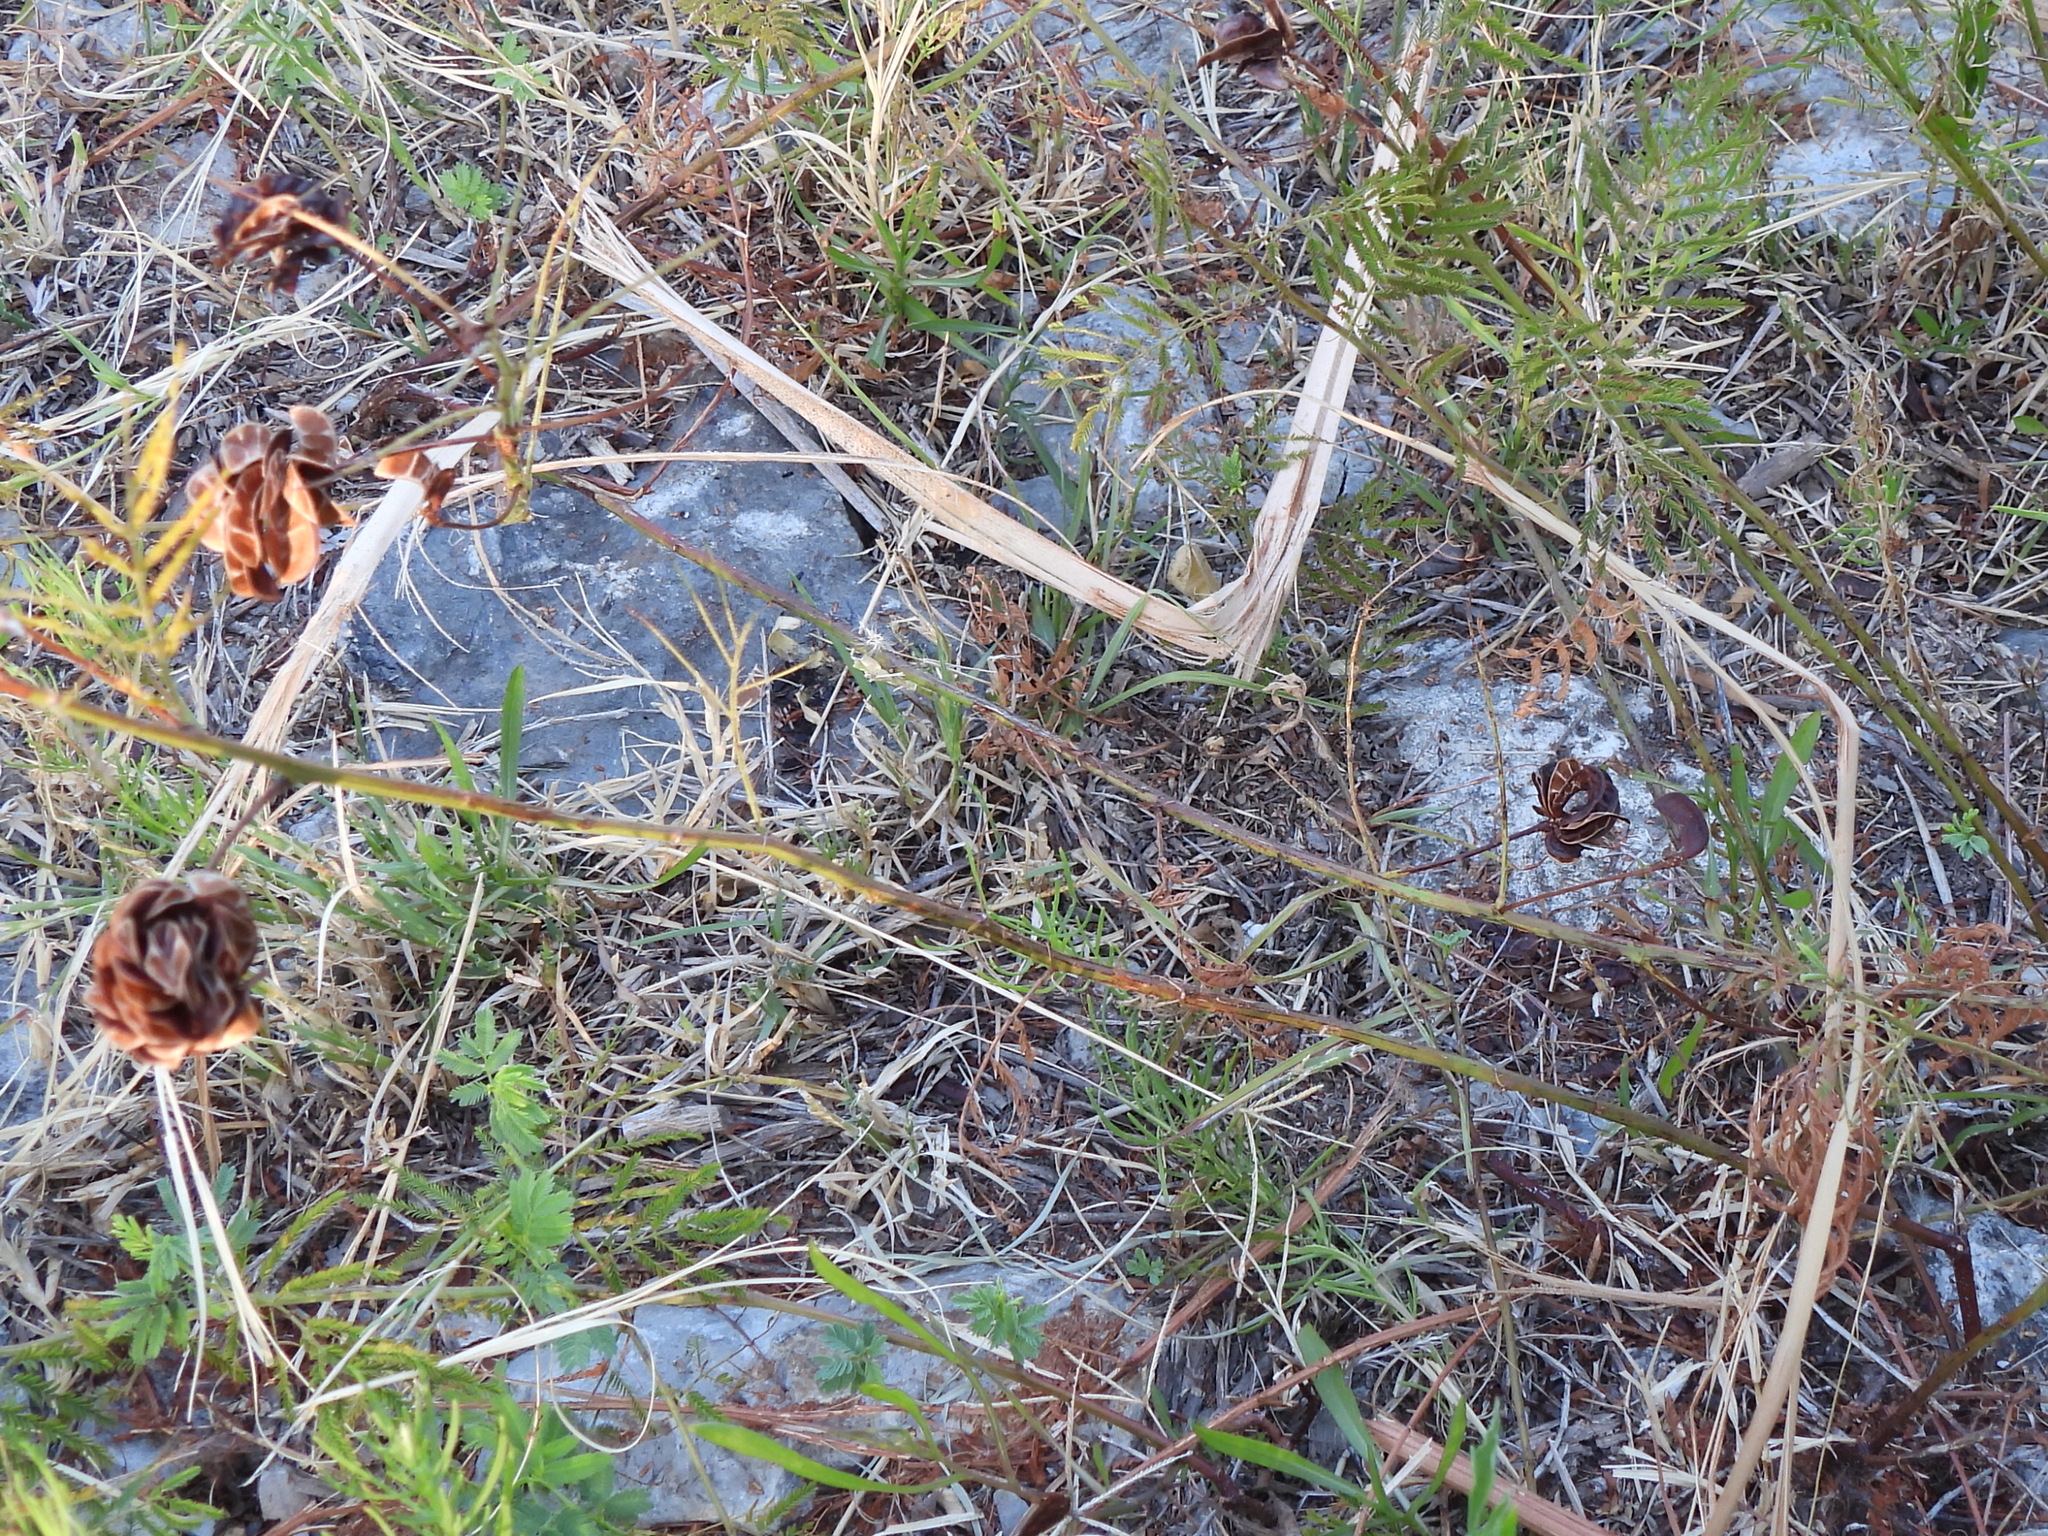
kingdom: Plantae
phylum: Tracheophyta
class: Magnoliopsida
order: Fabales
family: Fabaceae
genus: Desmanthus
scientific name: Desmanthus illinoensis
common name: Illinois bundle-flower
